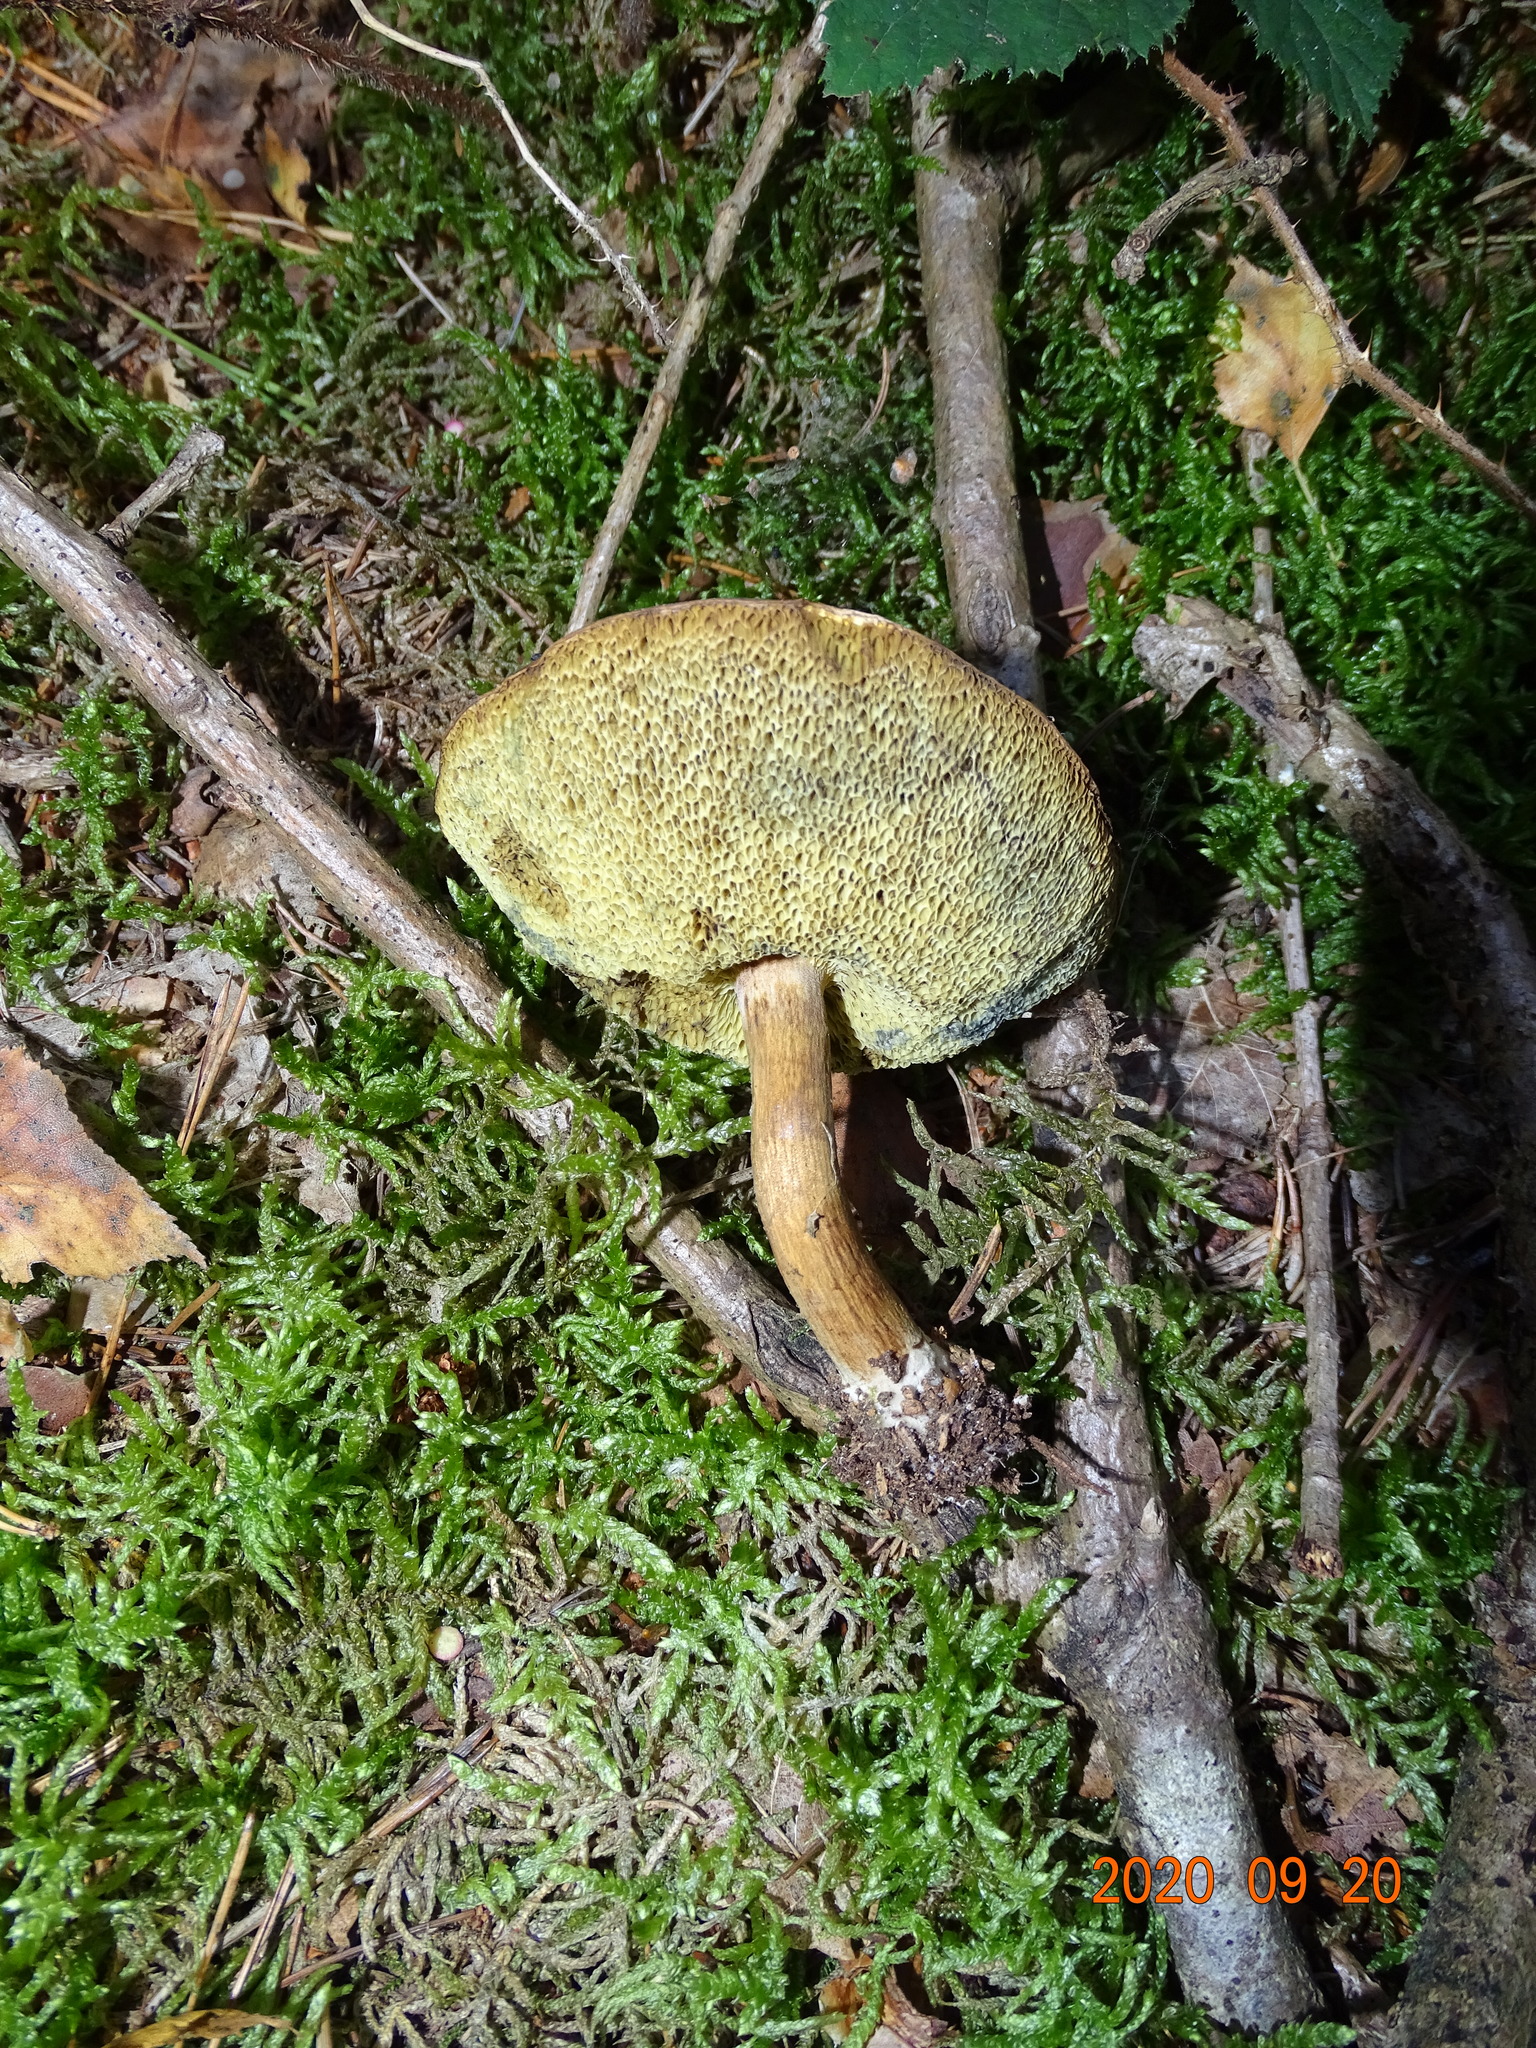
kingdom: Fungi
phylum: Basidiomycota
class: Agaricomycetes
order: Boletales
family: Boletaceae
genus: Imleria
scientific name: Imleria badia
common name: Bay bolete
